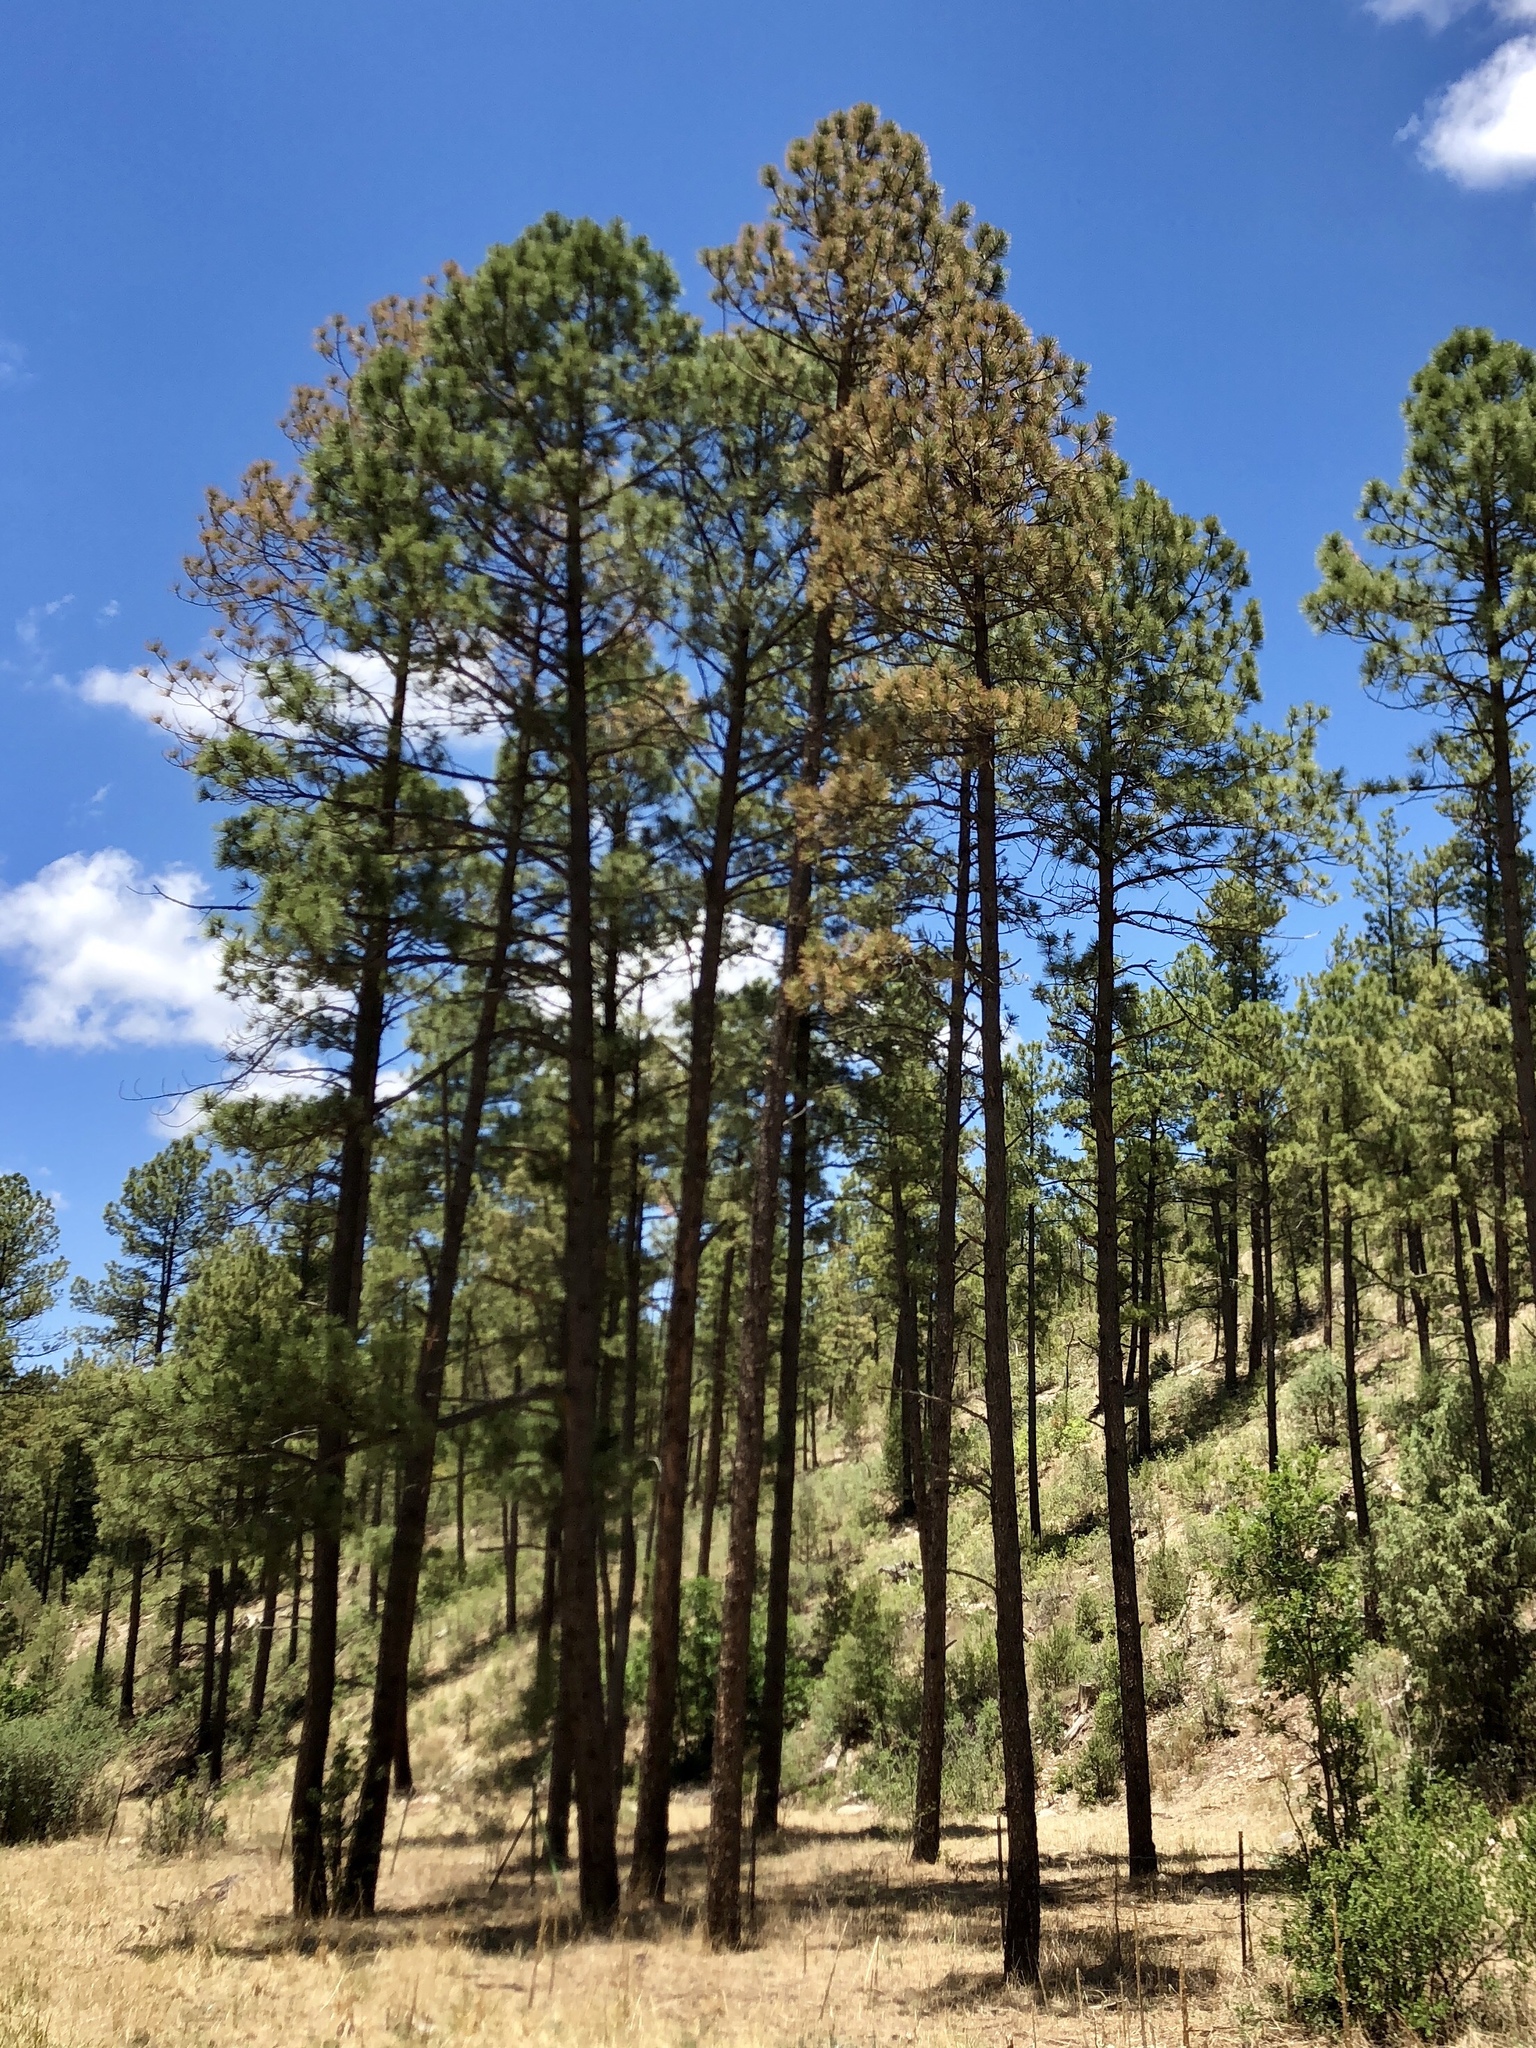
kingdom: Plantae
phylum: Tracheophyta
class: Pinopsida
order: Pinales
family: Pinaceae
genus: Pinus
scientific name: Pinus ponderosa
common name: Western yellow-pine
